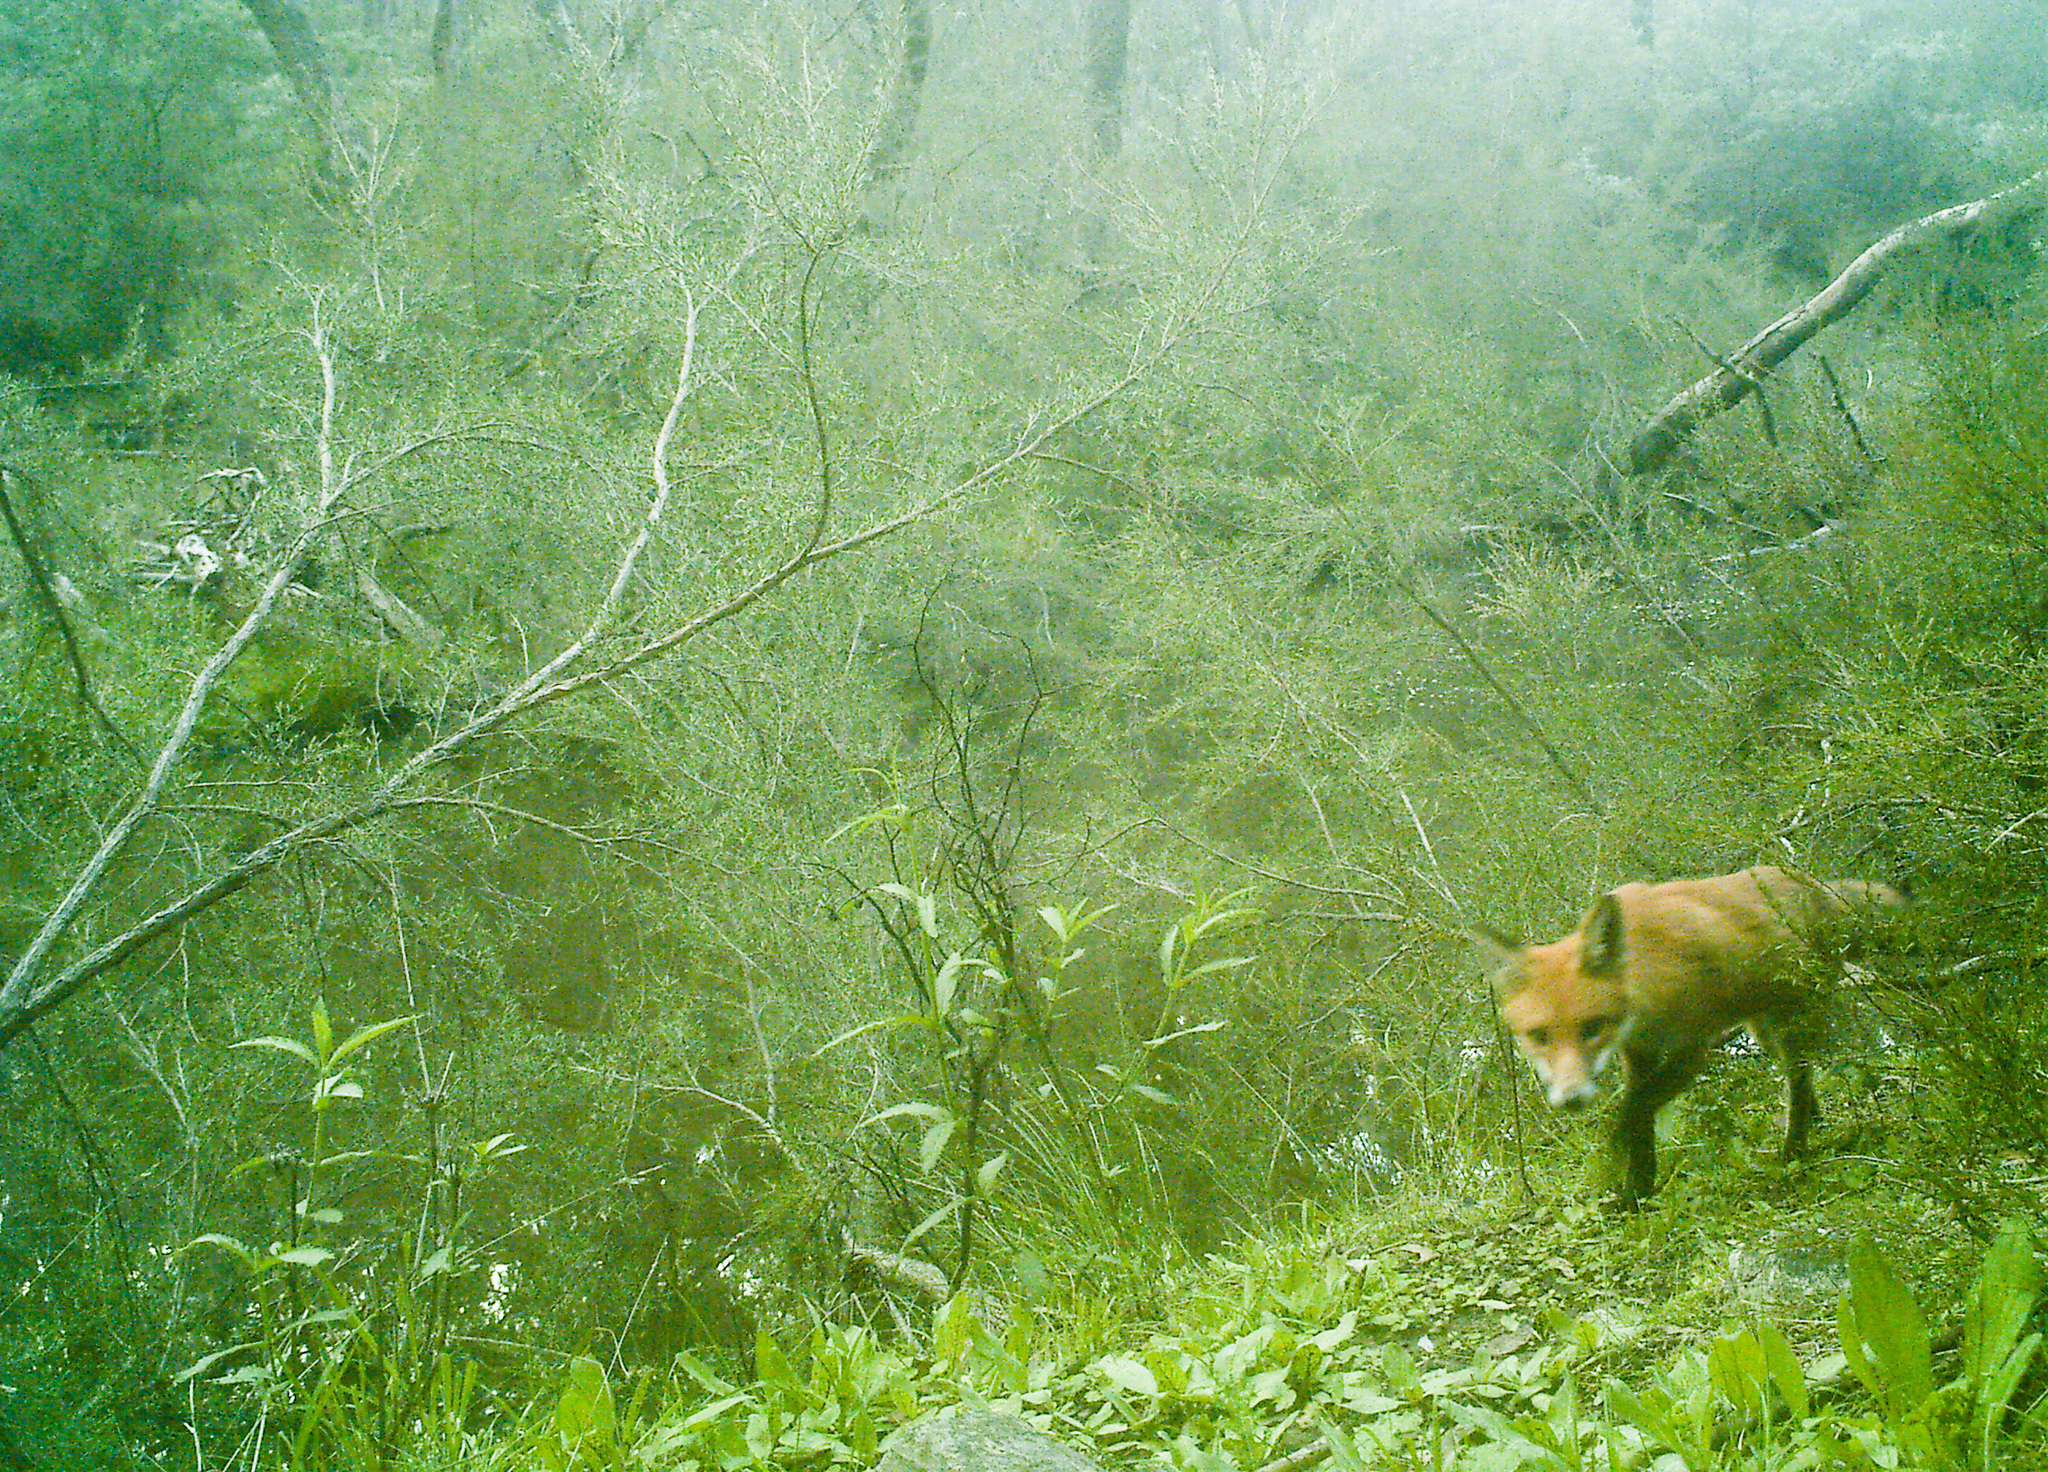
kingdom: Animalia
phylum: Chordata
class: Mammalia
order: Carnivora
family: Canidae
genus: Vulpes
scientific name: Vulpes vulpes
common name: Red fox
